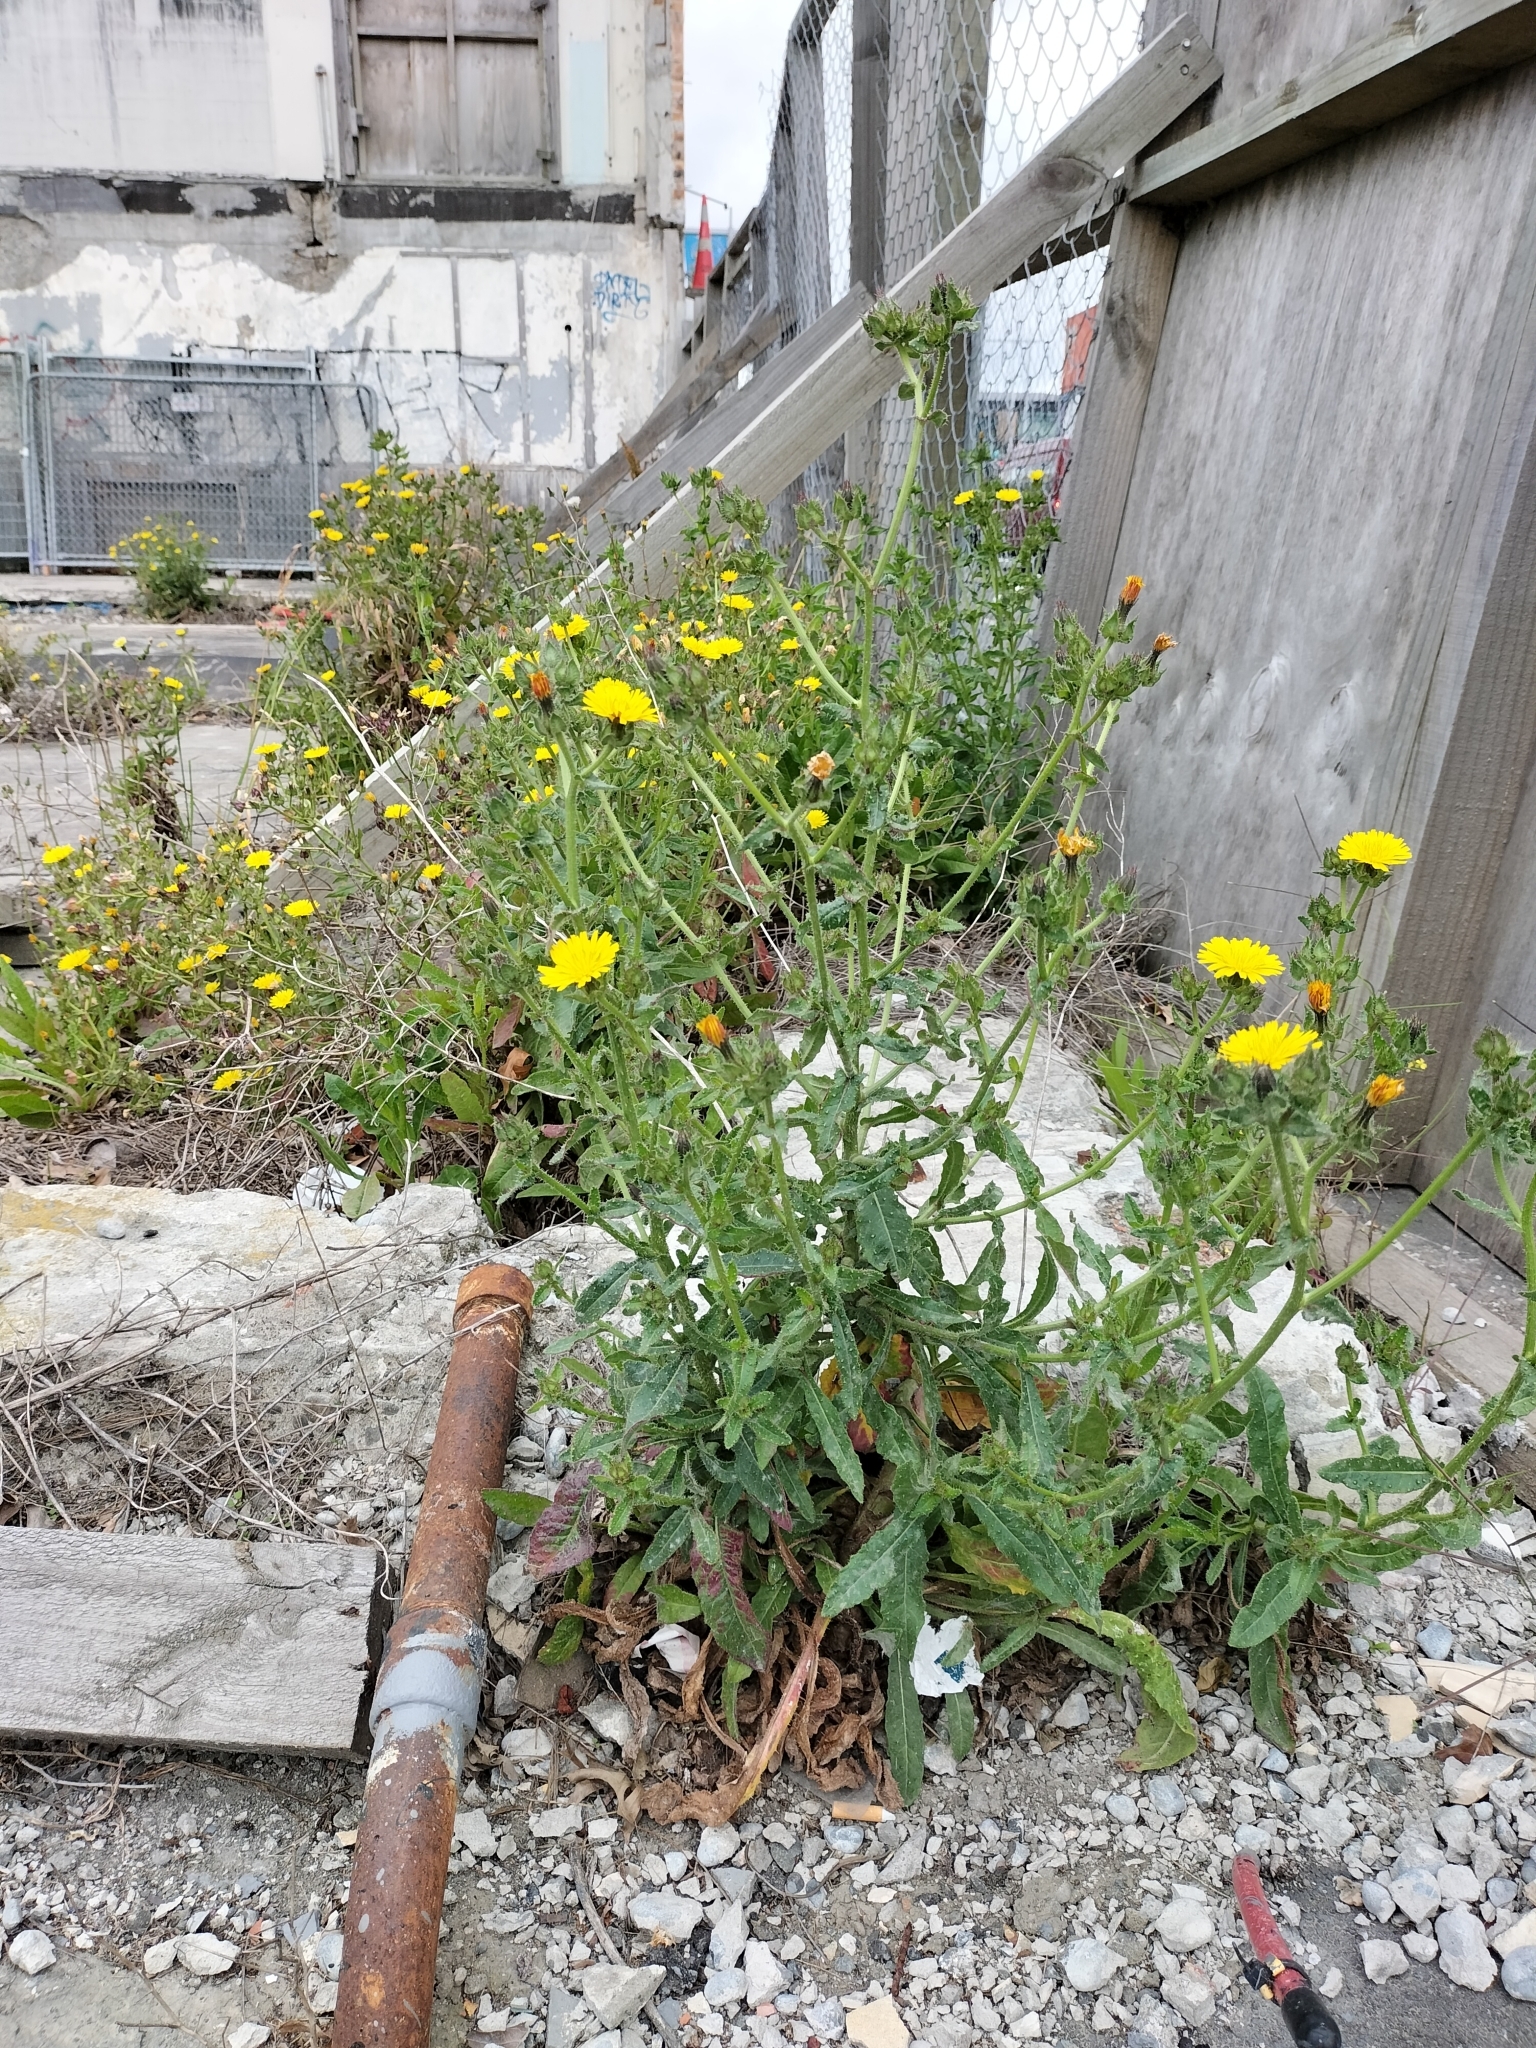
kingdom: Plantae
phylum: Tracheophyta
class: Magnoliopsida
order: Asterales
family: Asteraceae
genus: Helminthotheca
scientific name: Helminthotheca echioides
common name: Ox-tongue
